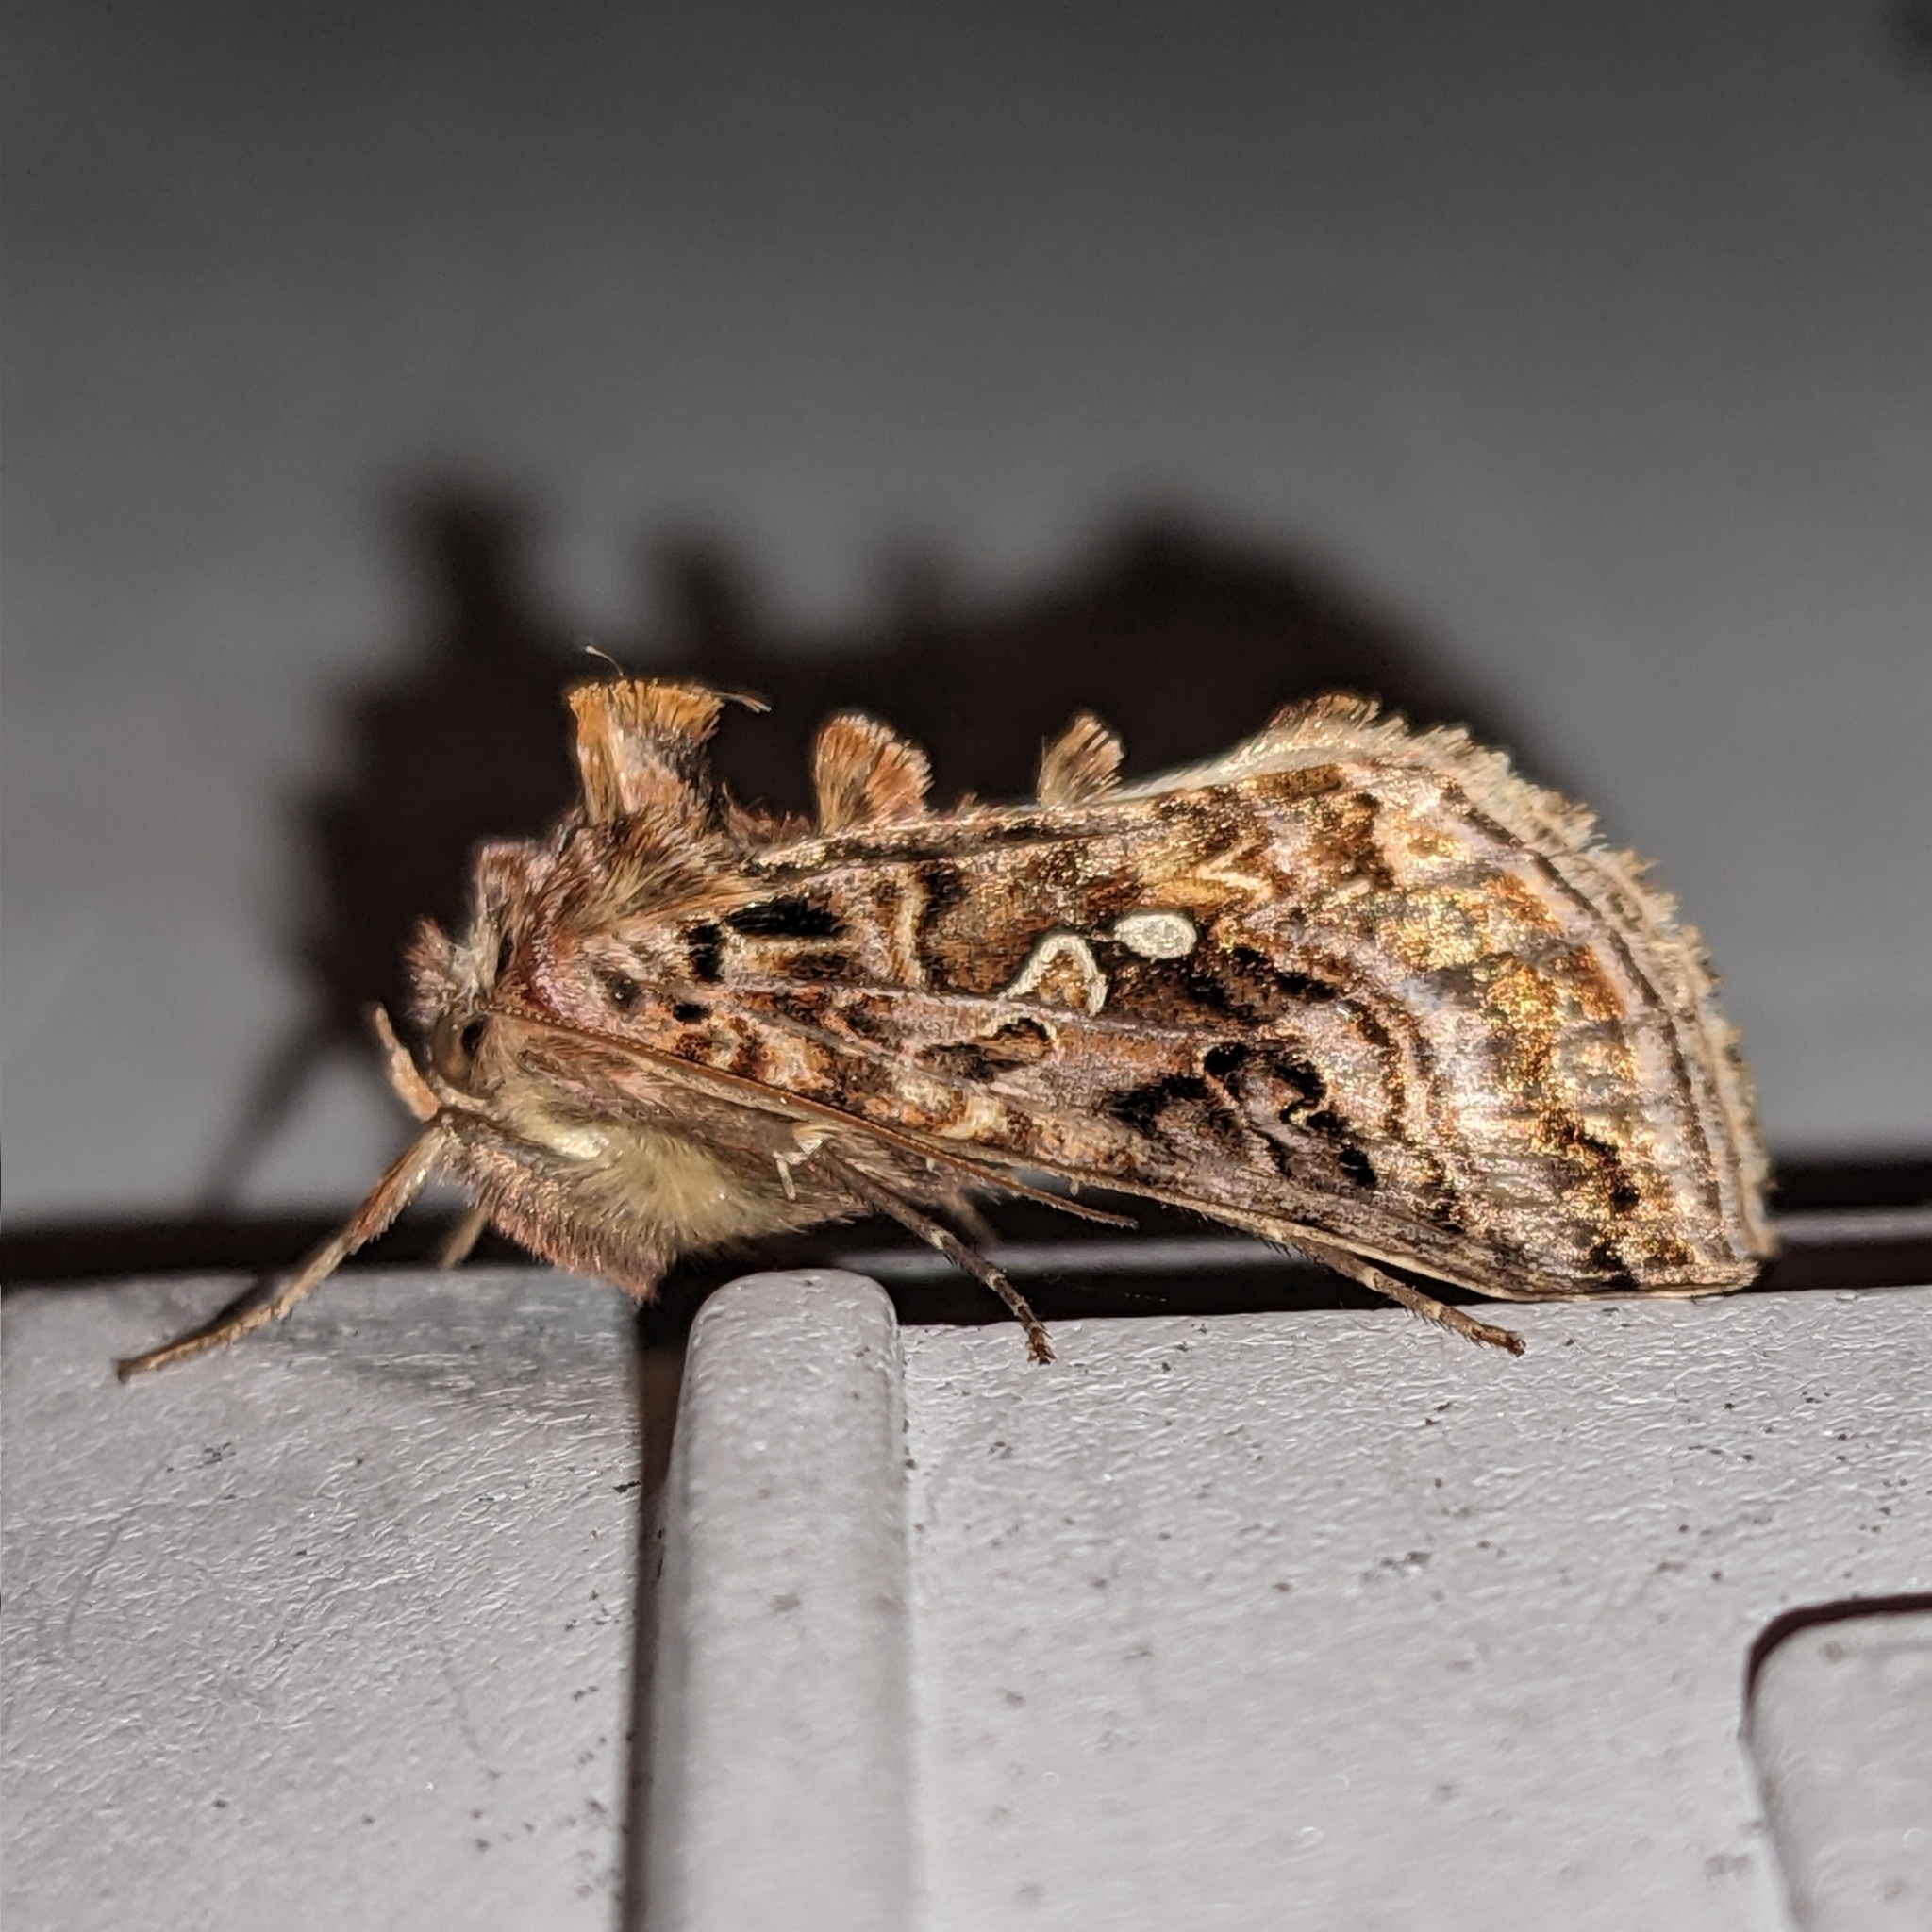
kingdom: Animalia
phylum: Arthropoda
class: Insecta
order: Lepidoptera
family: Noctuidae
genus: Autographa
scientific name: Autographa mappa
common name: Wavy chestnut y moth
